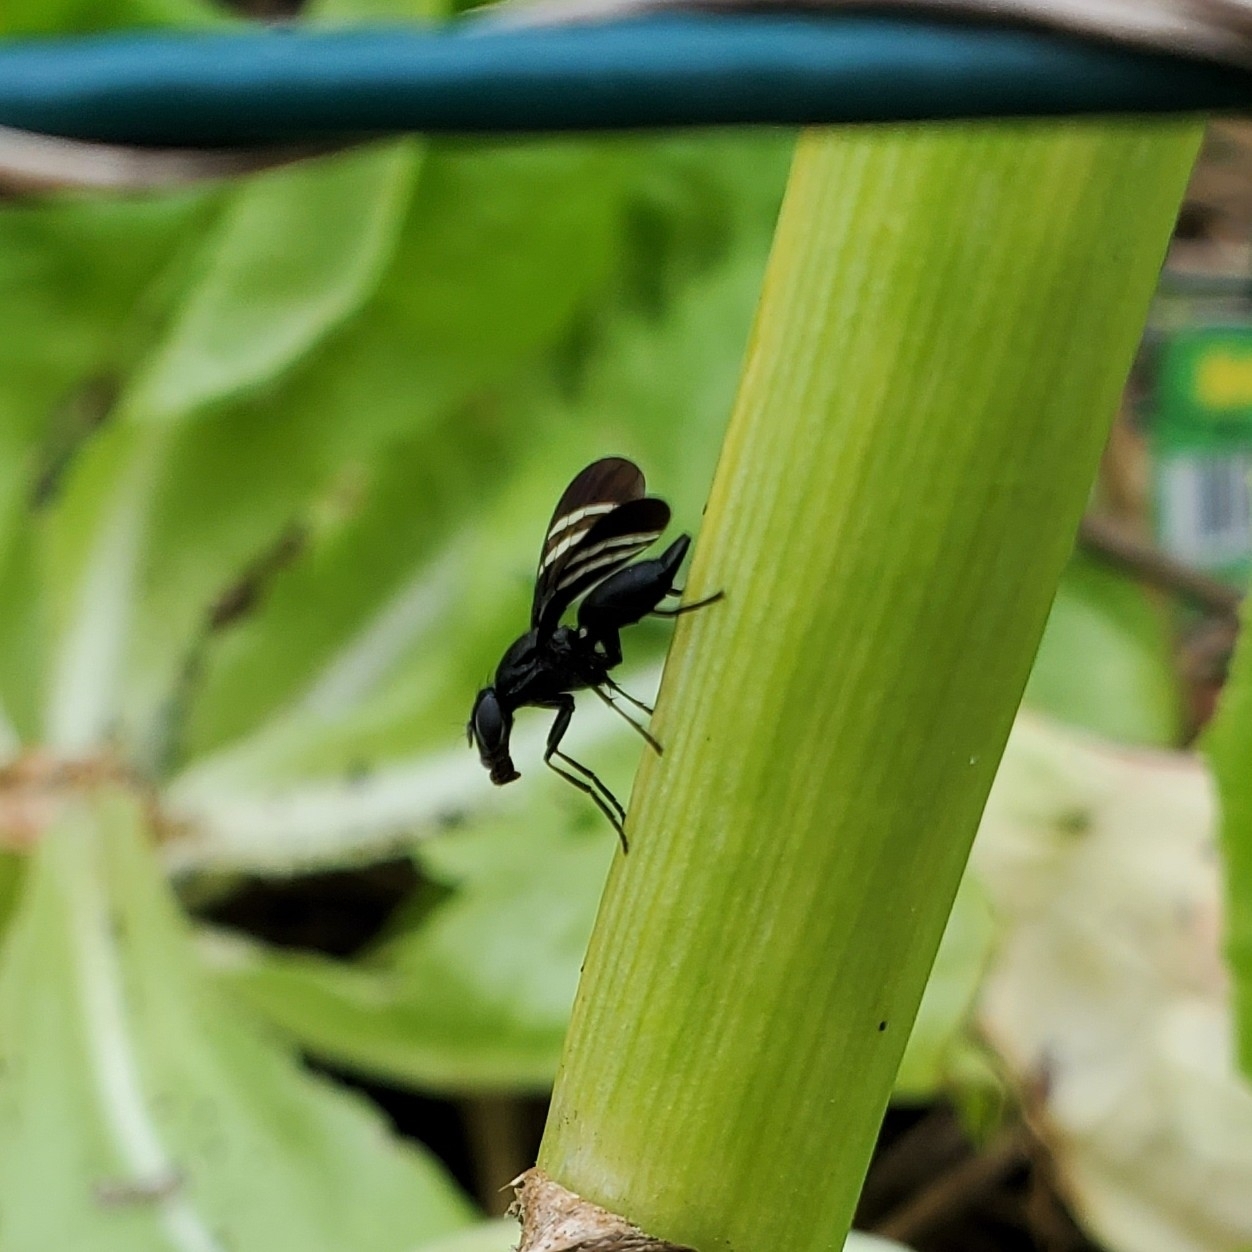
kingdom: Animalia
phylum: Arthropoda
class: Insecta
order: Diptera
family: Ulidiidae
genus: Tritoxa
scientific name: Tritoxa flexa
